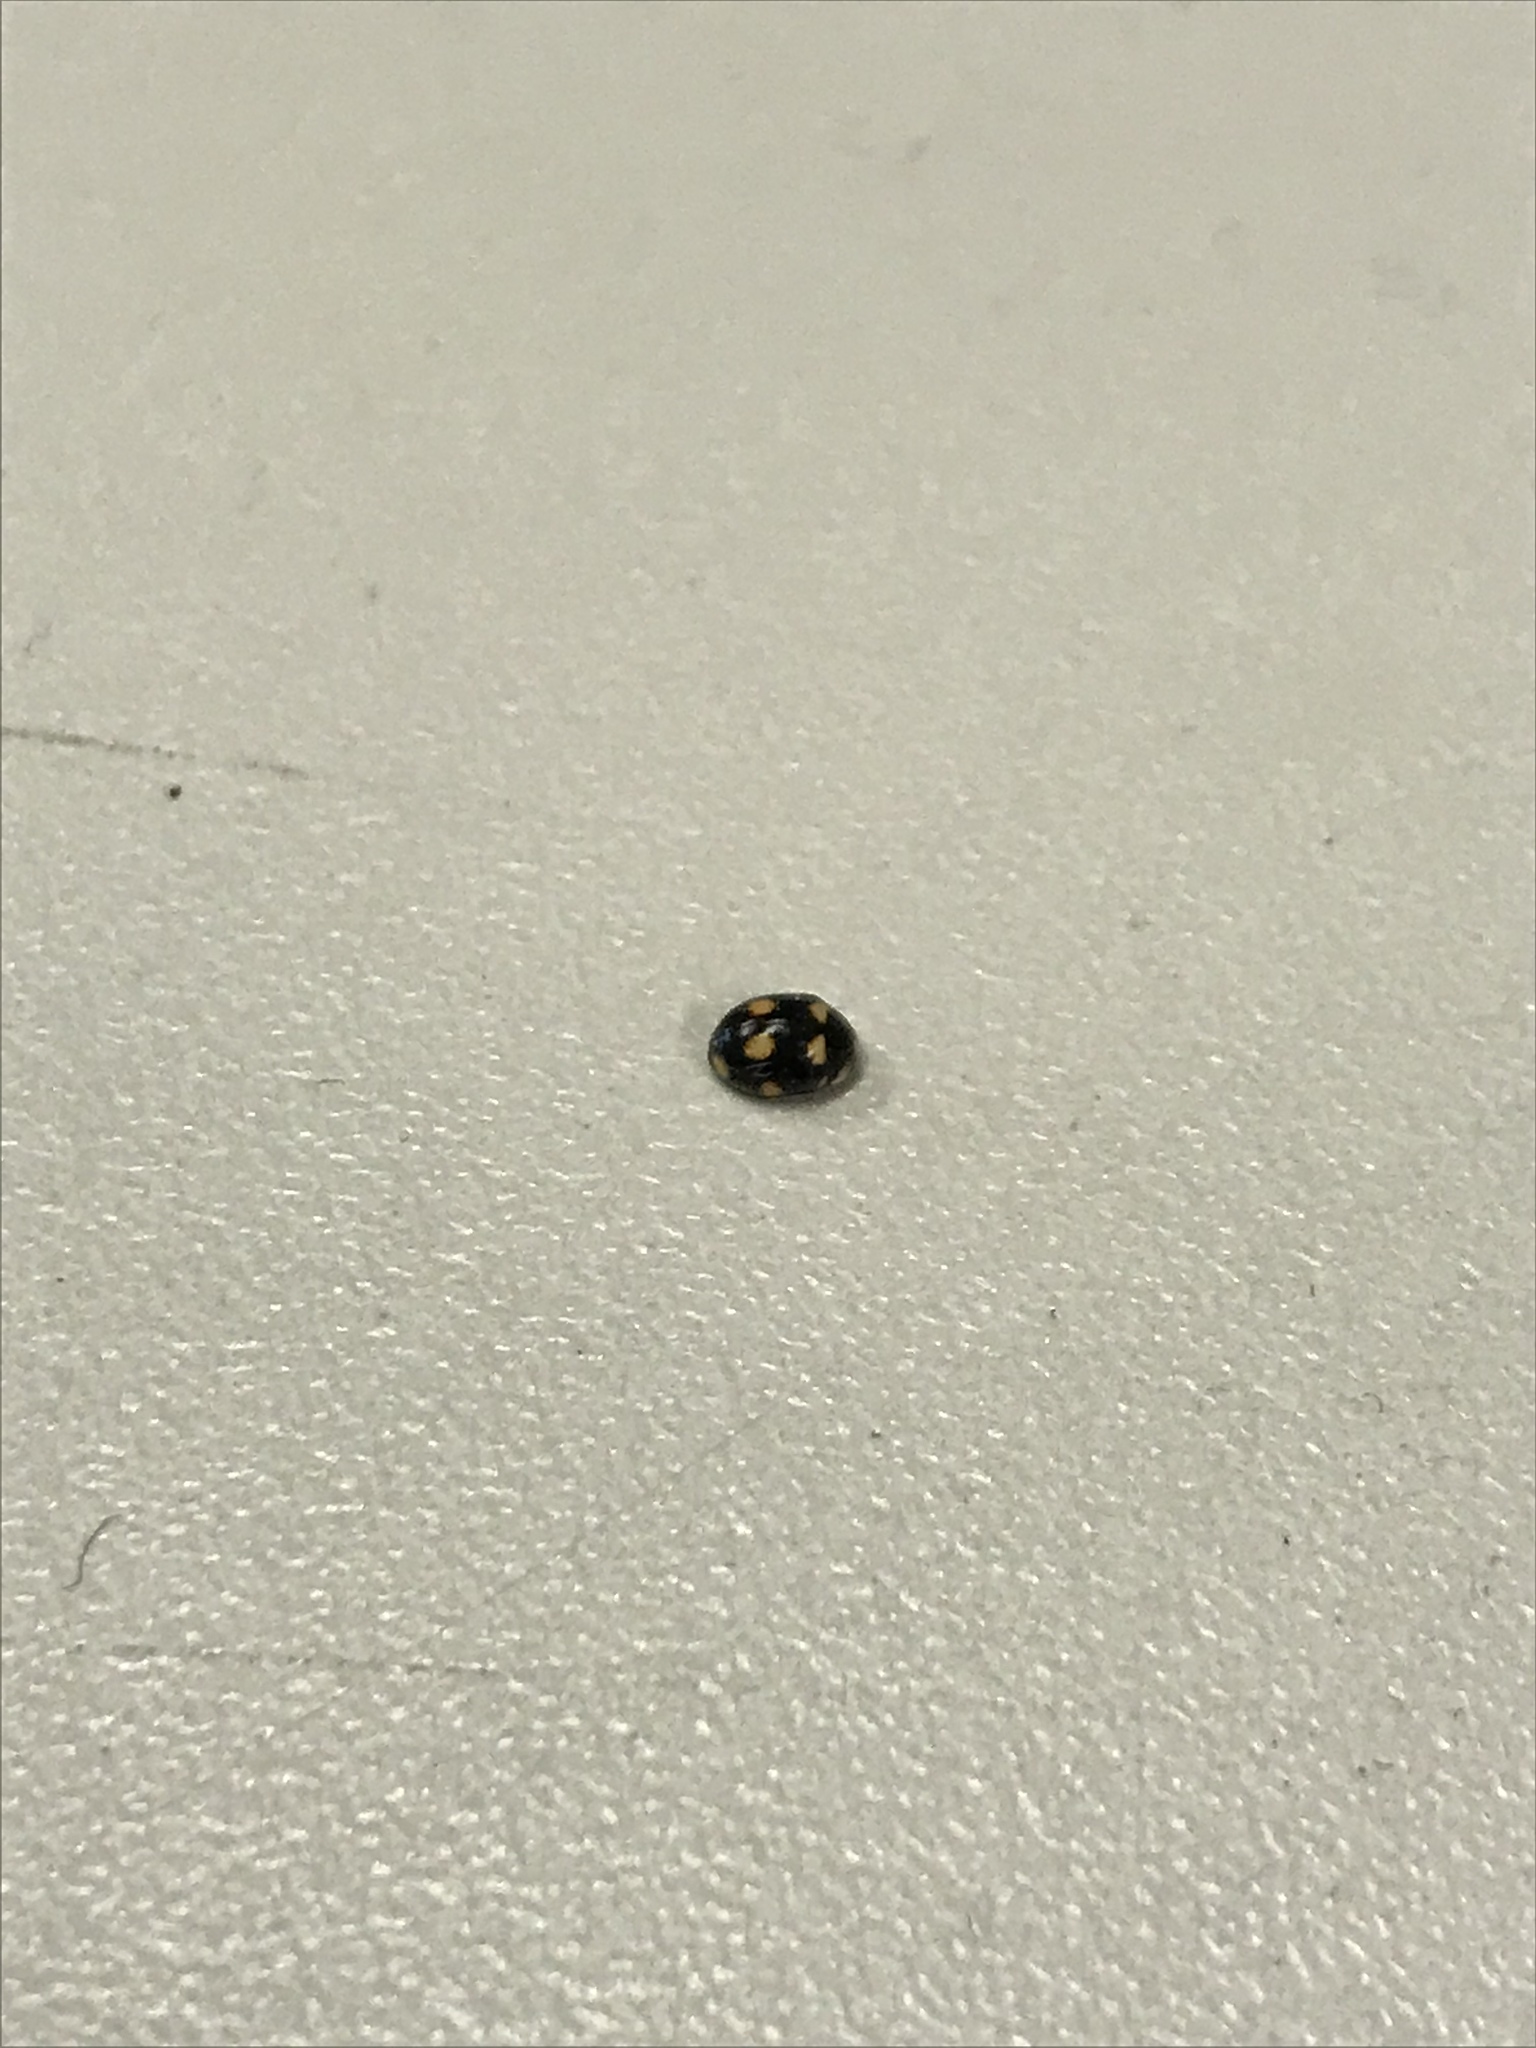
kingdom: Animalia
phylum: Arthropoda
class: Insecta
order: Coleoptera
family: Coccinellidae
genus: Brachiacantha
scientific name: Brachiacantha ursina
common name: Ursine spurleg lady beetle
